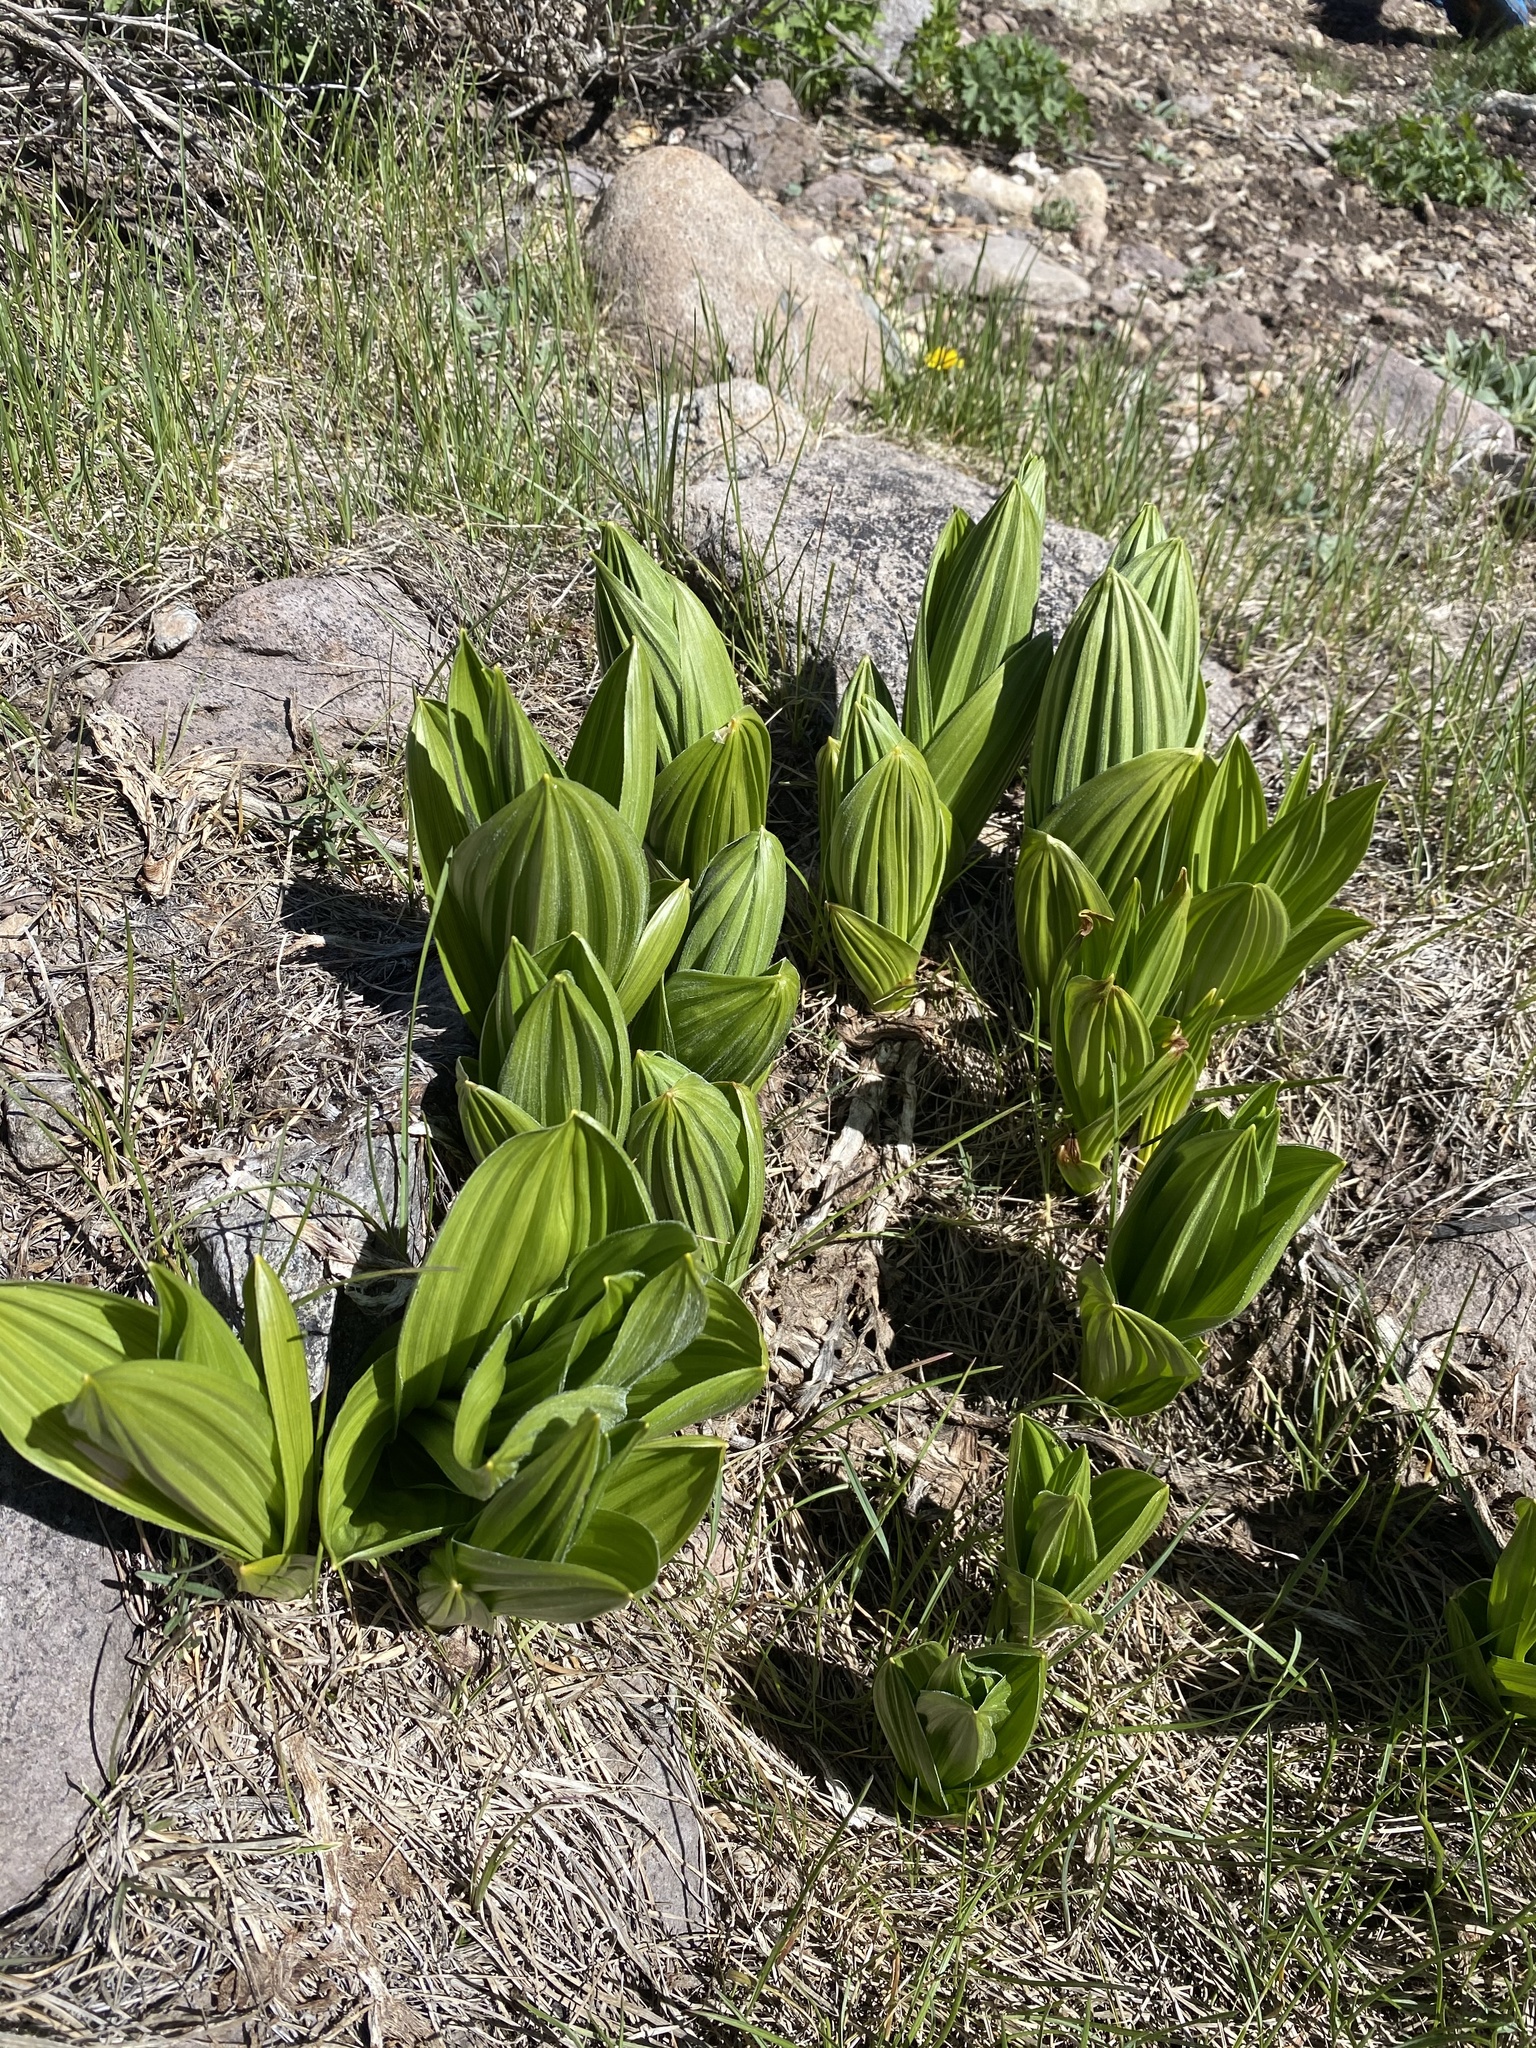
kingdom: Plantae
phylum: Tracheophyta
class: Liliopsida
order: Liliales
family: Melanthiaceae
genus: Veratrum
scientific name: Veratrum californicum
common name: California veratrum
